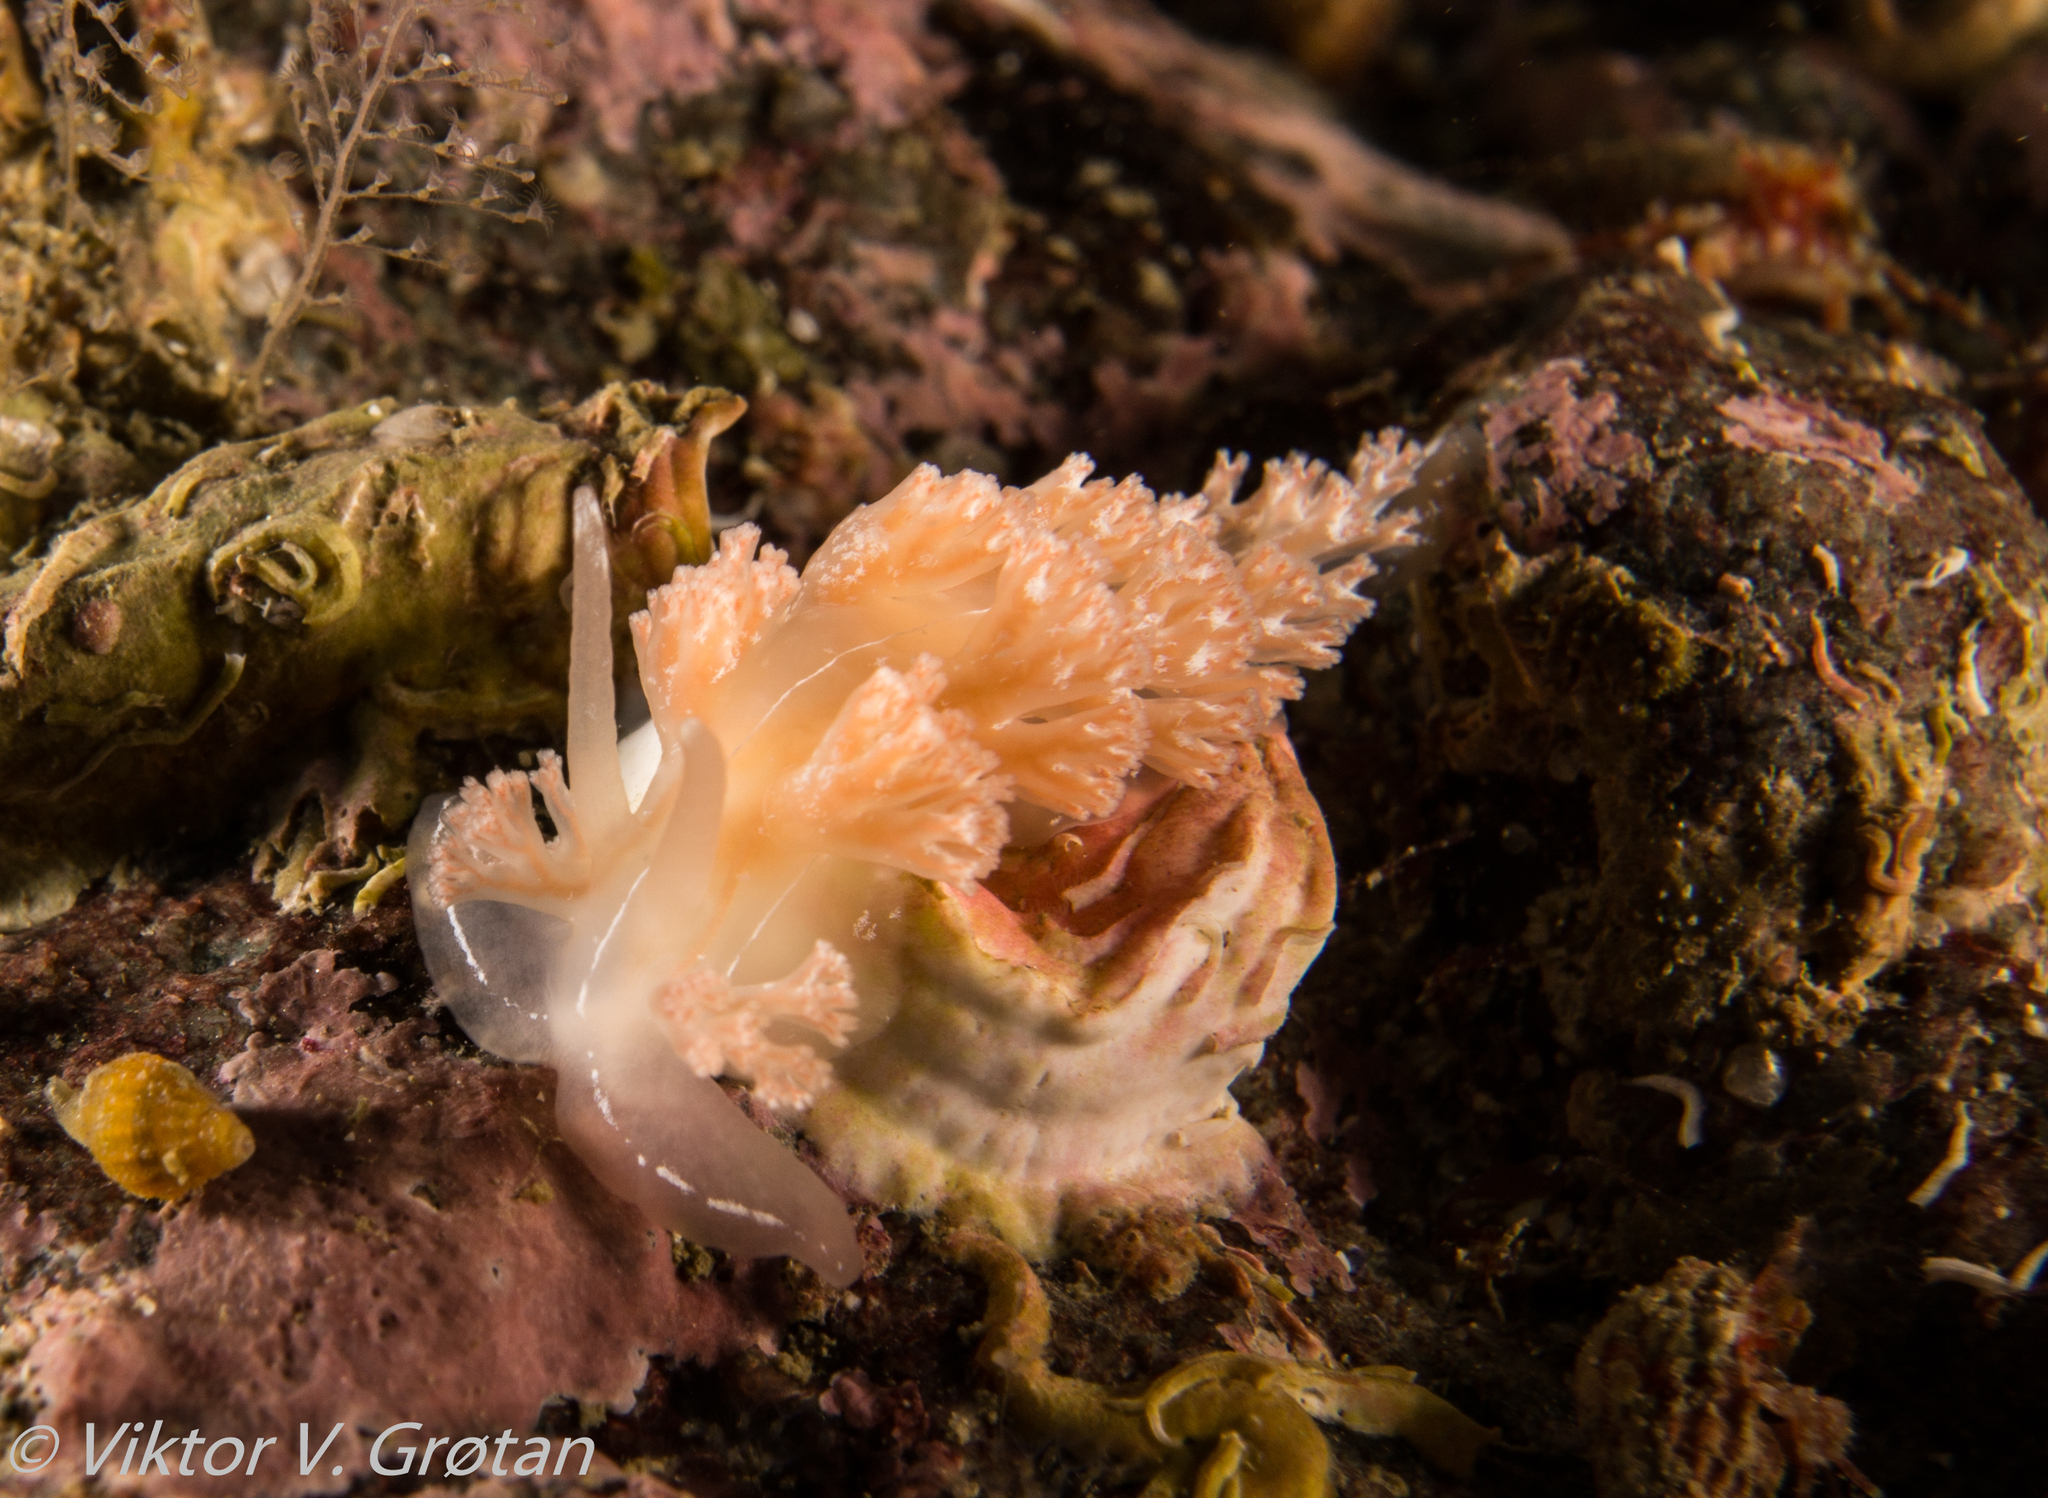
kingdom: Animalia
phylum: Mollusca
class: Gastropoda
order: Nudibranchia
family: Heroidae
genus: Hero
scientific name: Hero formosa
